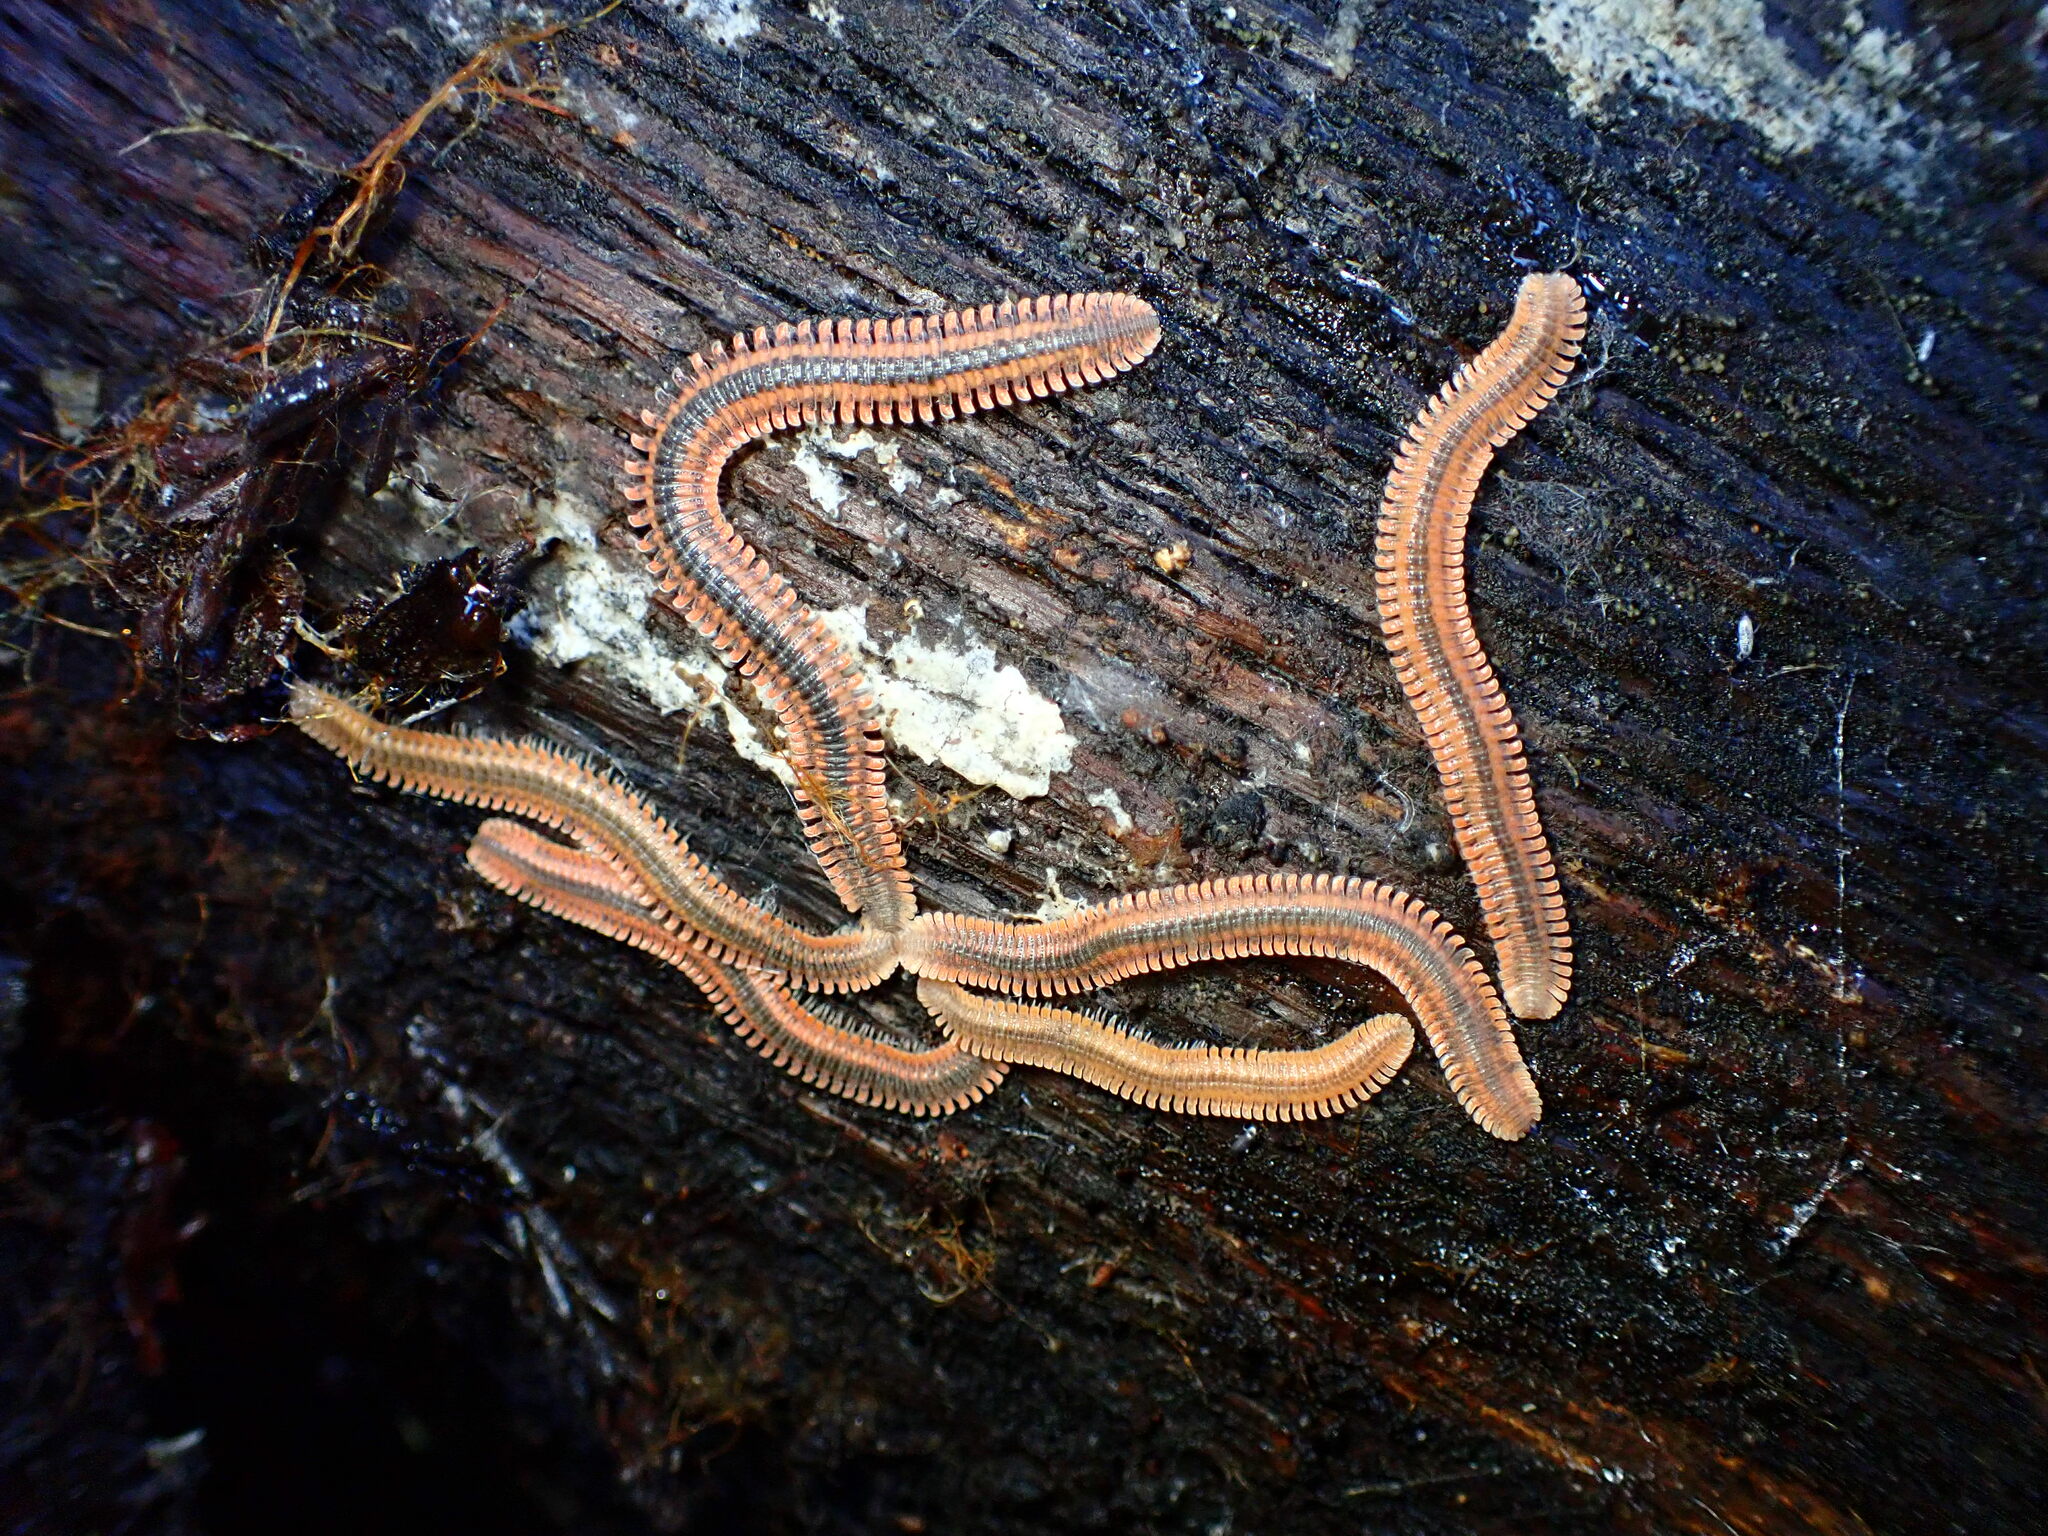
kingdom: Animalia
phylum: Arthropoda
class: Diplopoda
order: Platydesmida
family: Andrognathidae
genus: Brachycybe
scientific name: Brachycybe producta
